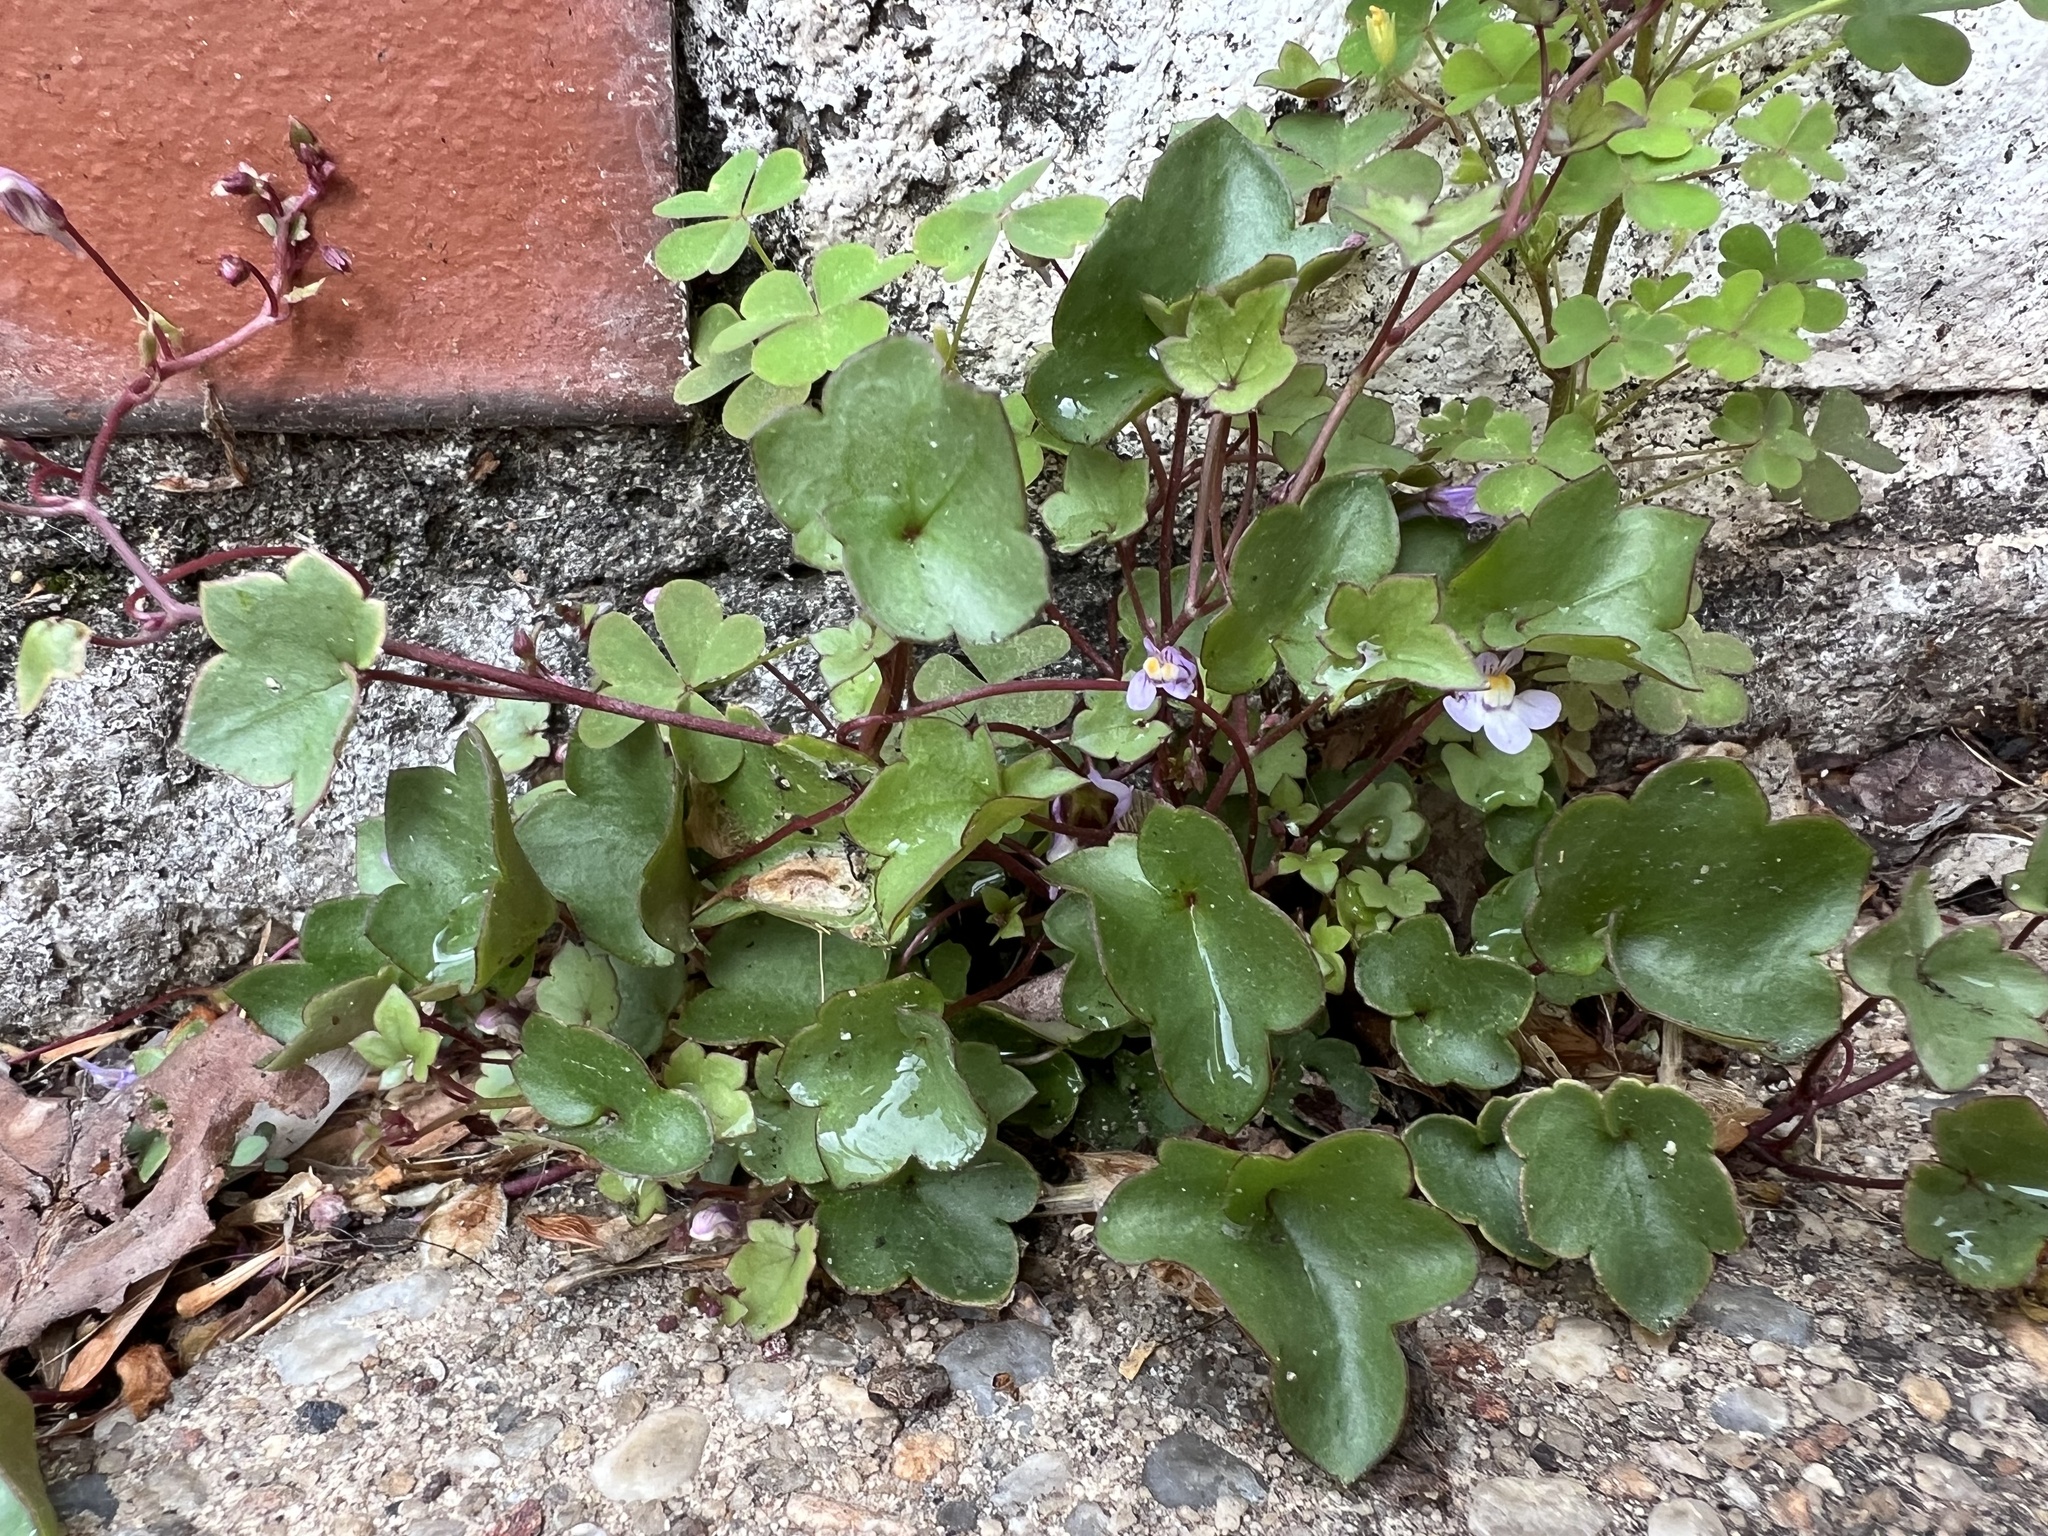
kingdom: Plantae
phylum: Tracheophyta
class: Magnoliopsida
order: Lamiales
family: Plantaginaceae
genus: Cymbalaria
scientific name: Cymbalaria muralis
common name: Ivy-leaved toadflax
